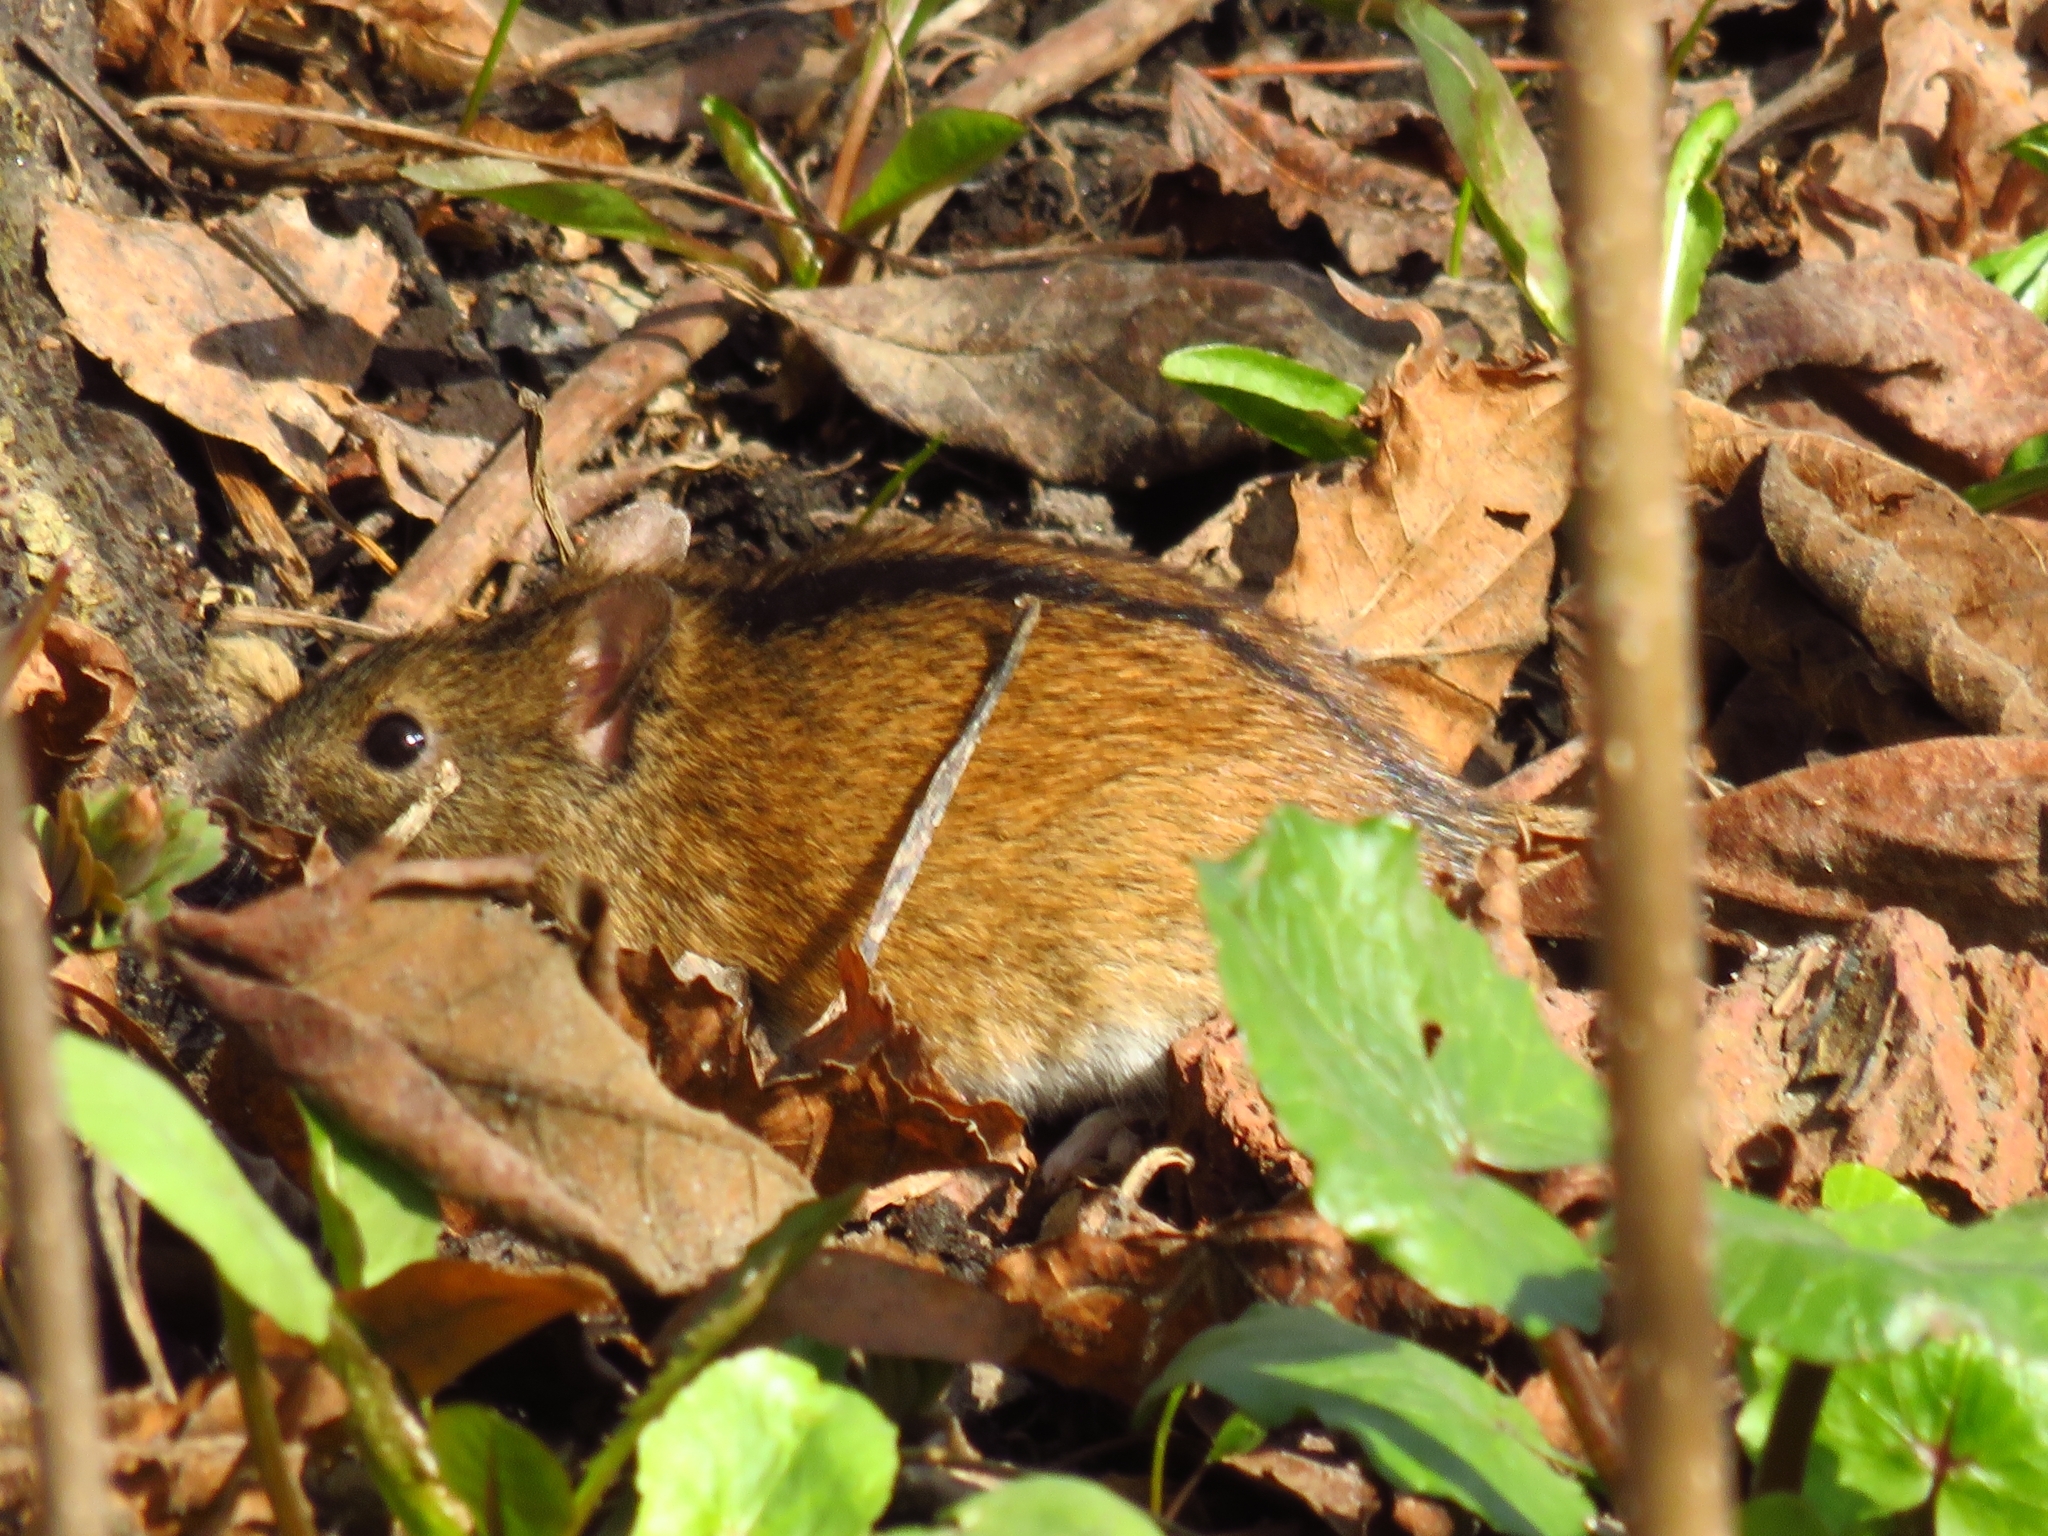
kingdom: Animalia
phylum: Chordata
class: Mammalia
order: Rodentia
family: Muridae
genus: Apodemus
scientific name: Apodemus agrarius
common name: Striped field mouse
